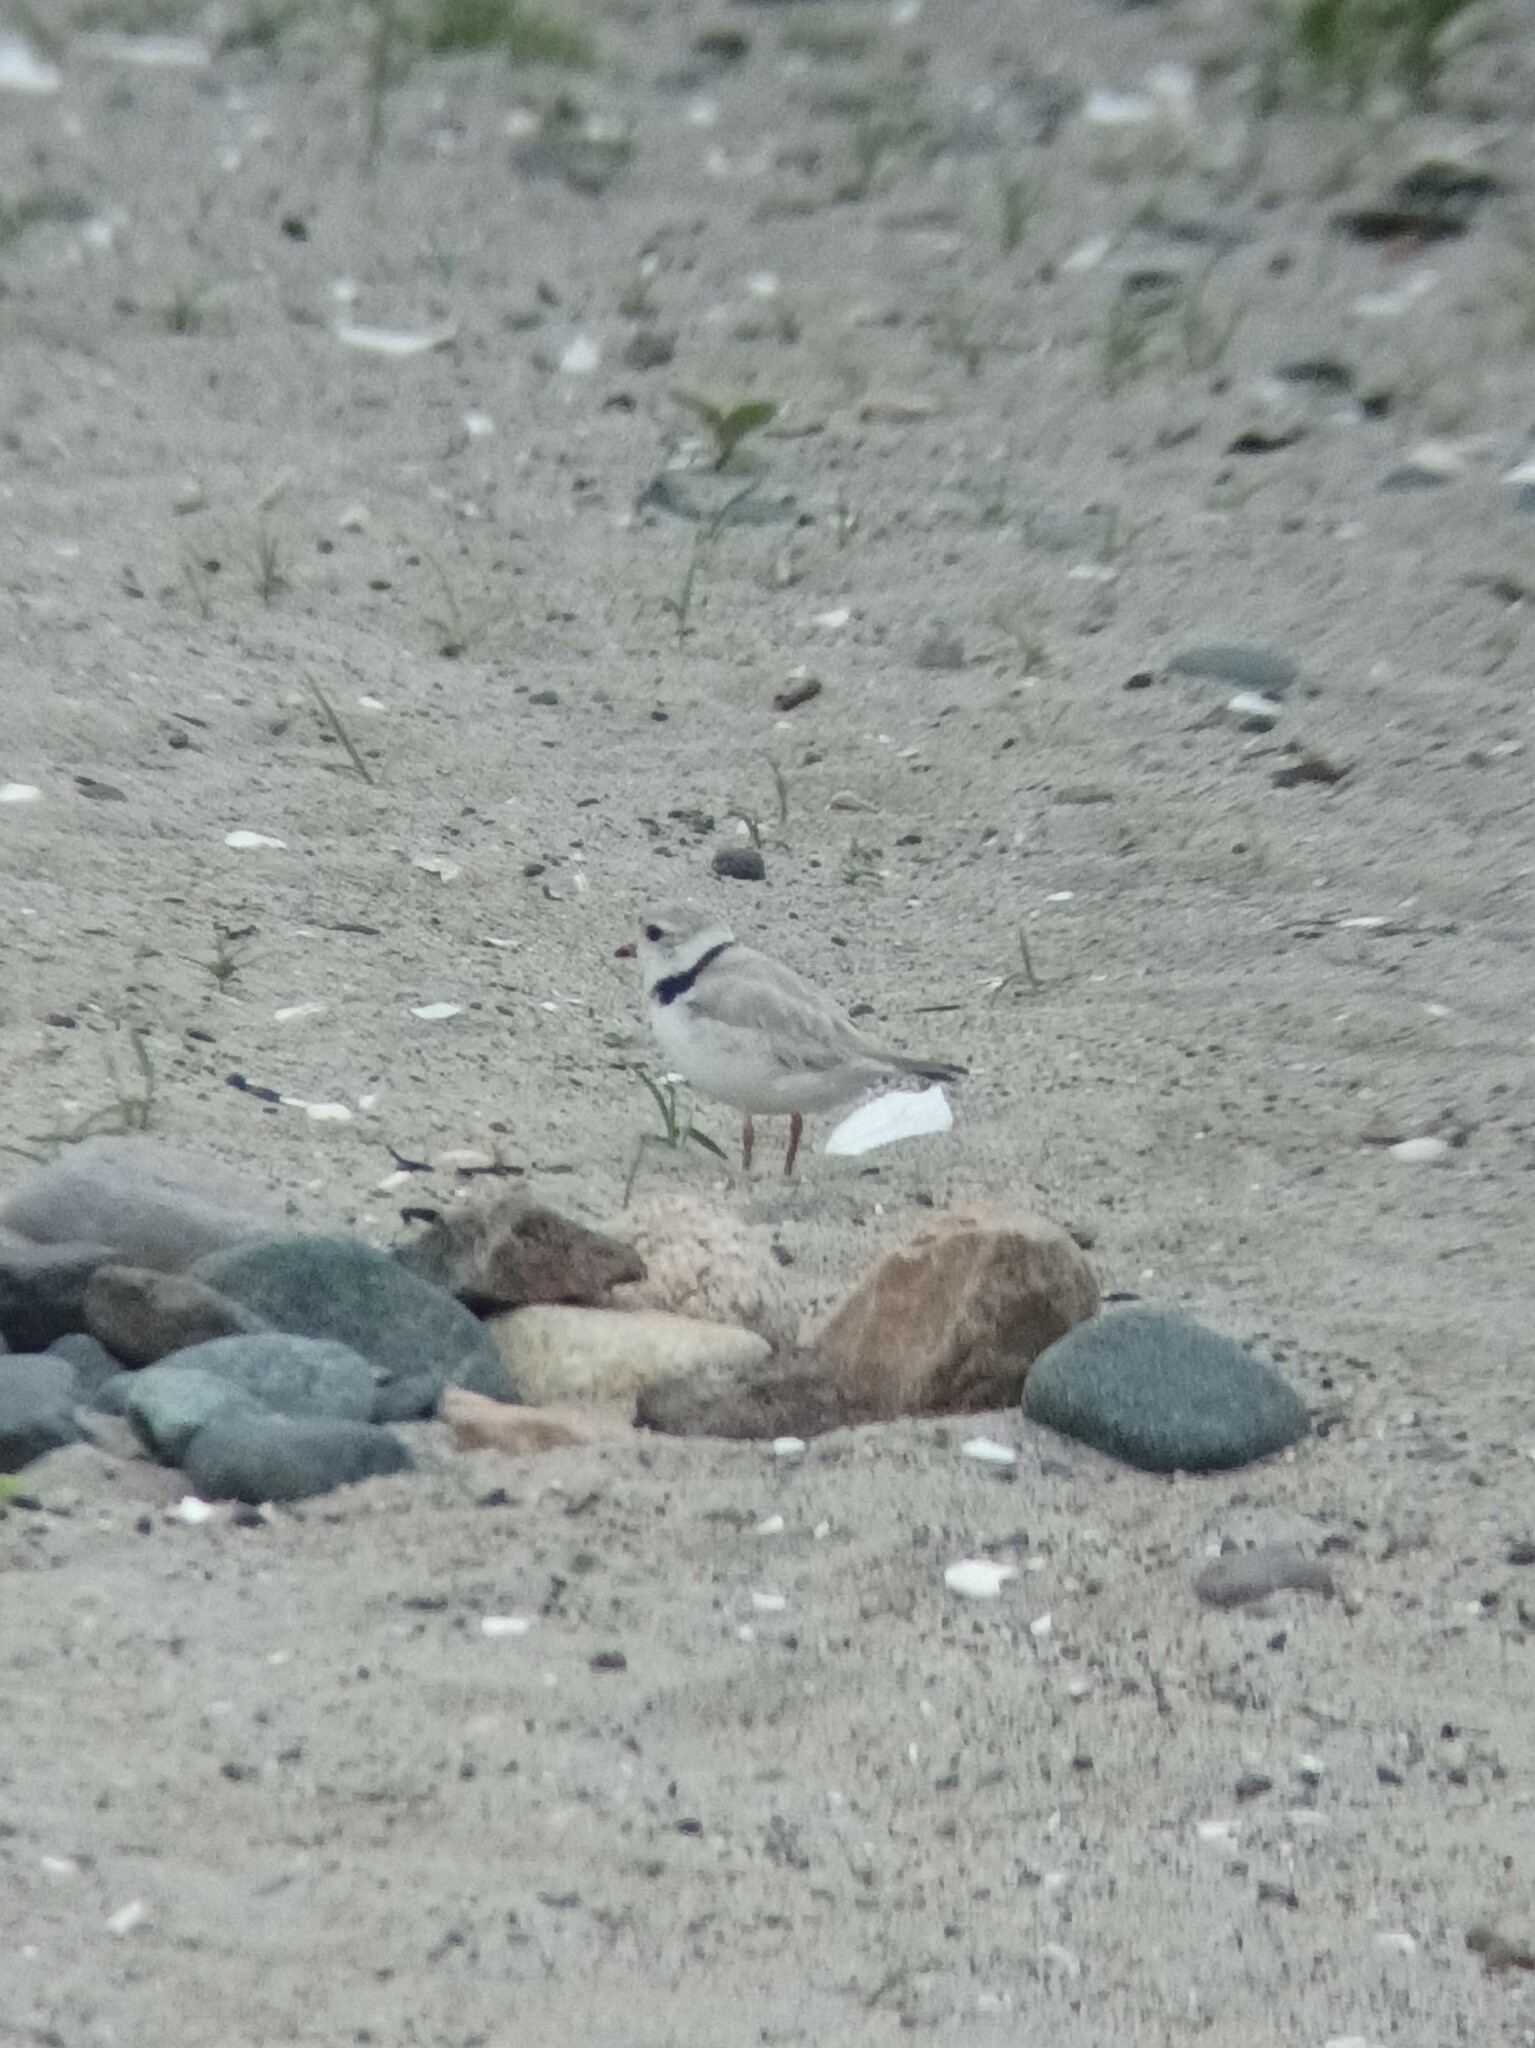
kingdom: Animalia
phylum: Chordata
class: Aves
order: Charadriiformes
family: Charadriidae
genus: Charadrius
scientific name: Charadrius melodus
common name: Piping plover
